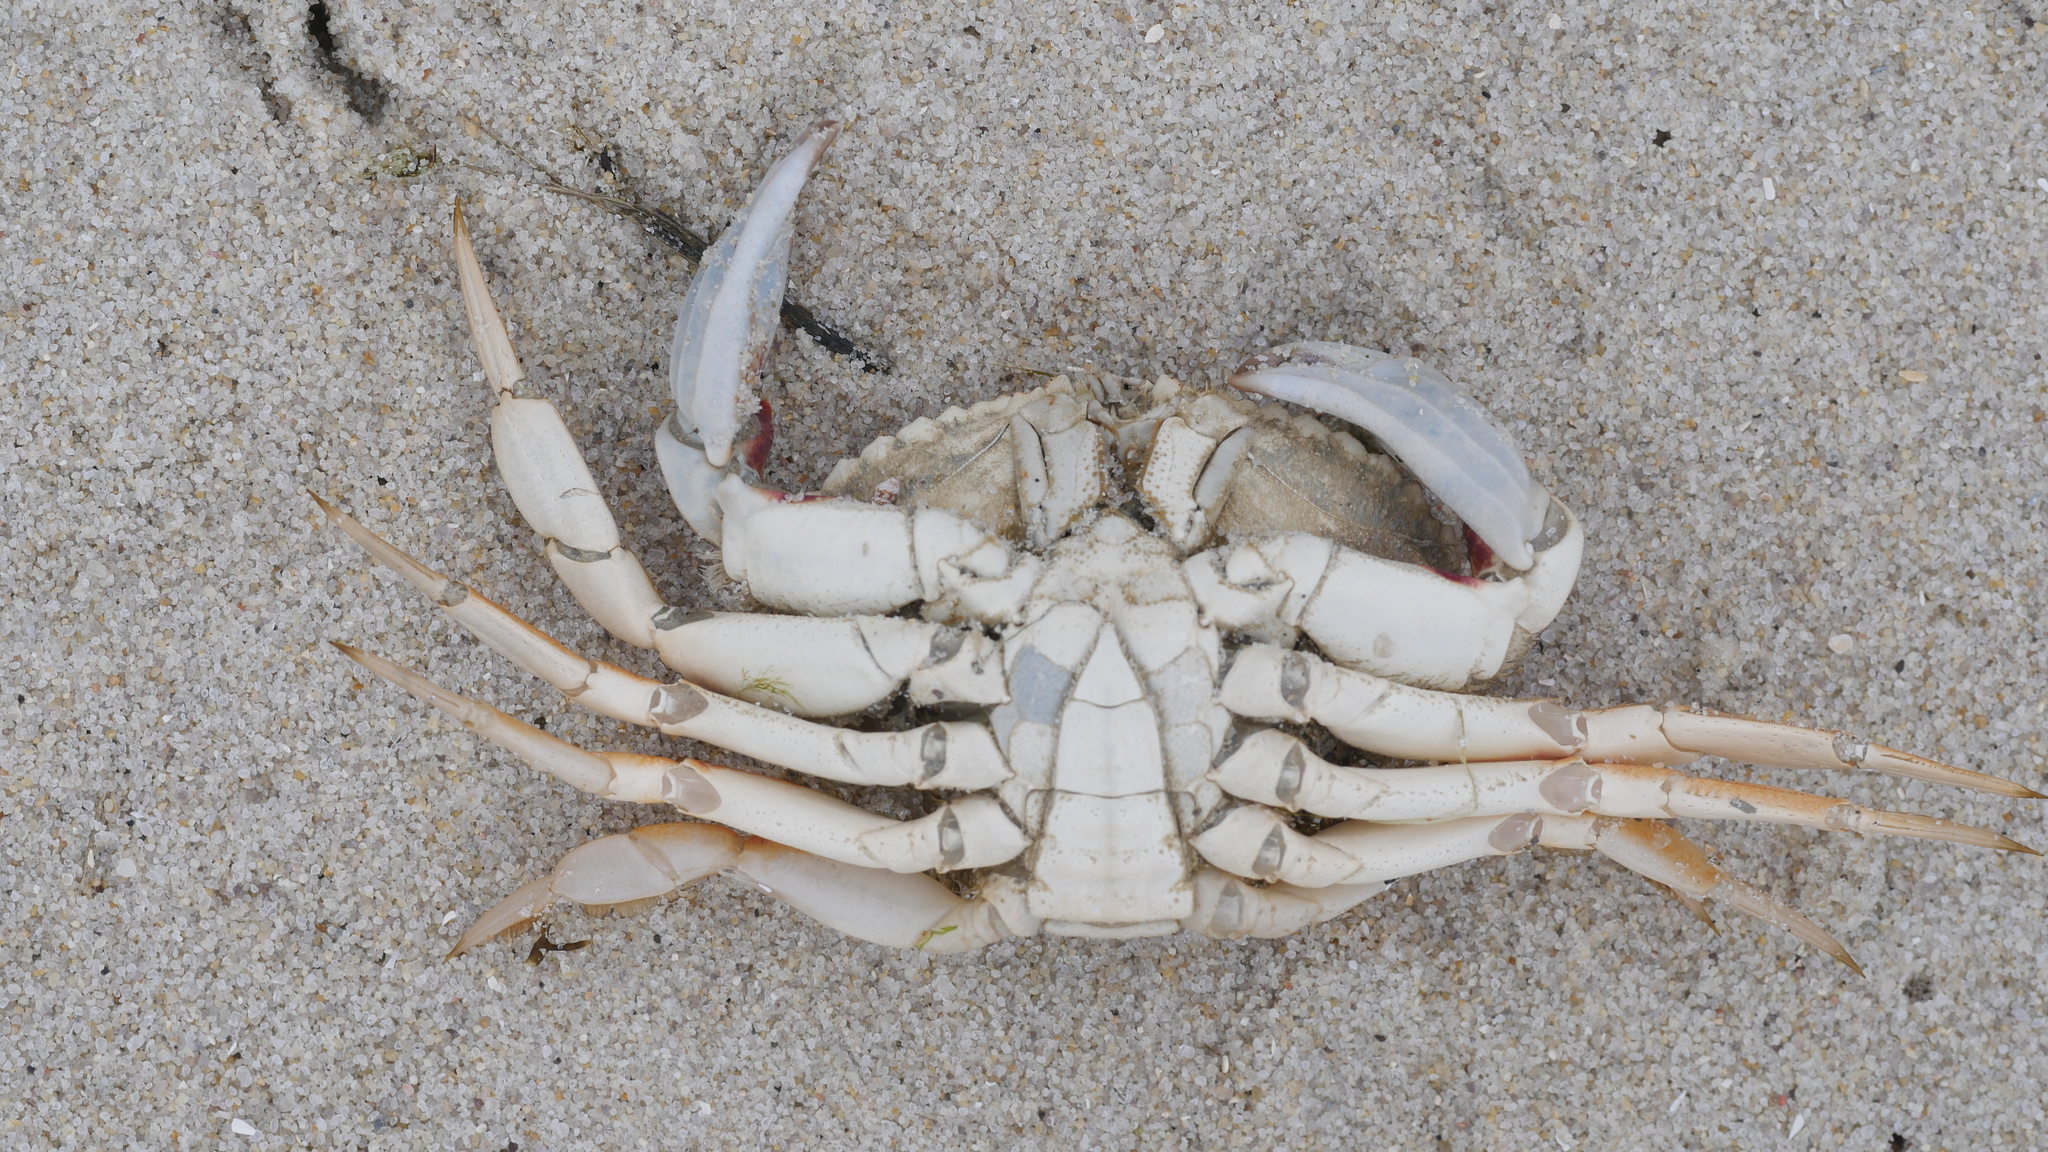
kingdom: Animalia
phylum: Arthropoda
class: Malacostraca
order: Decapoda
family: Cancridae
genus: Cancer
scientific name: Cancer irroratus
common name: Atlantic rock crab
